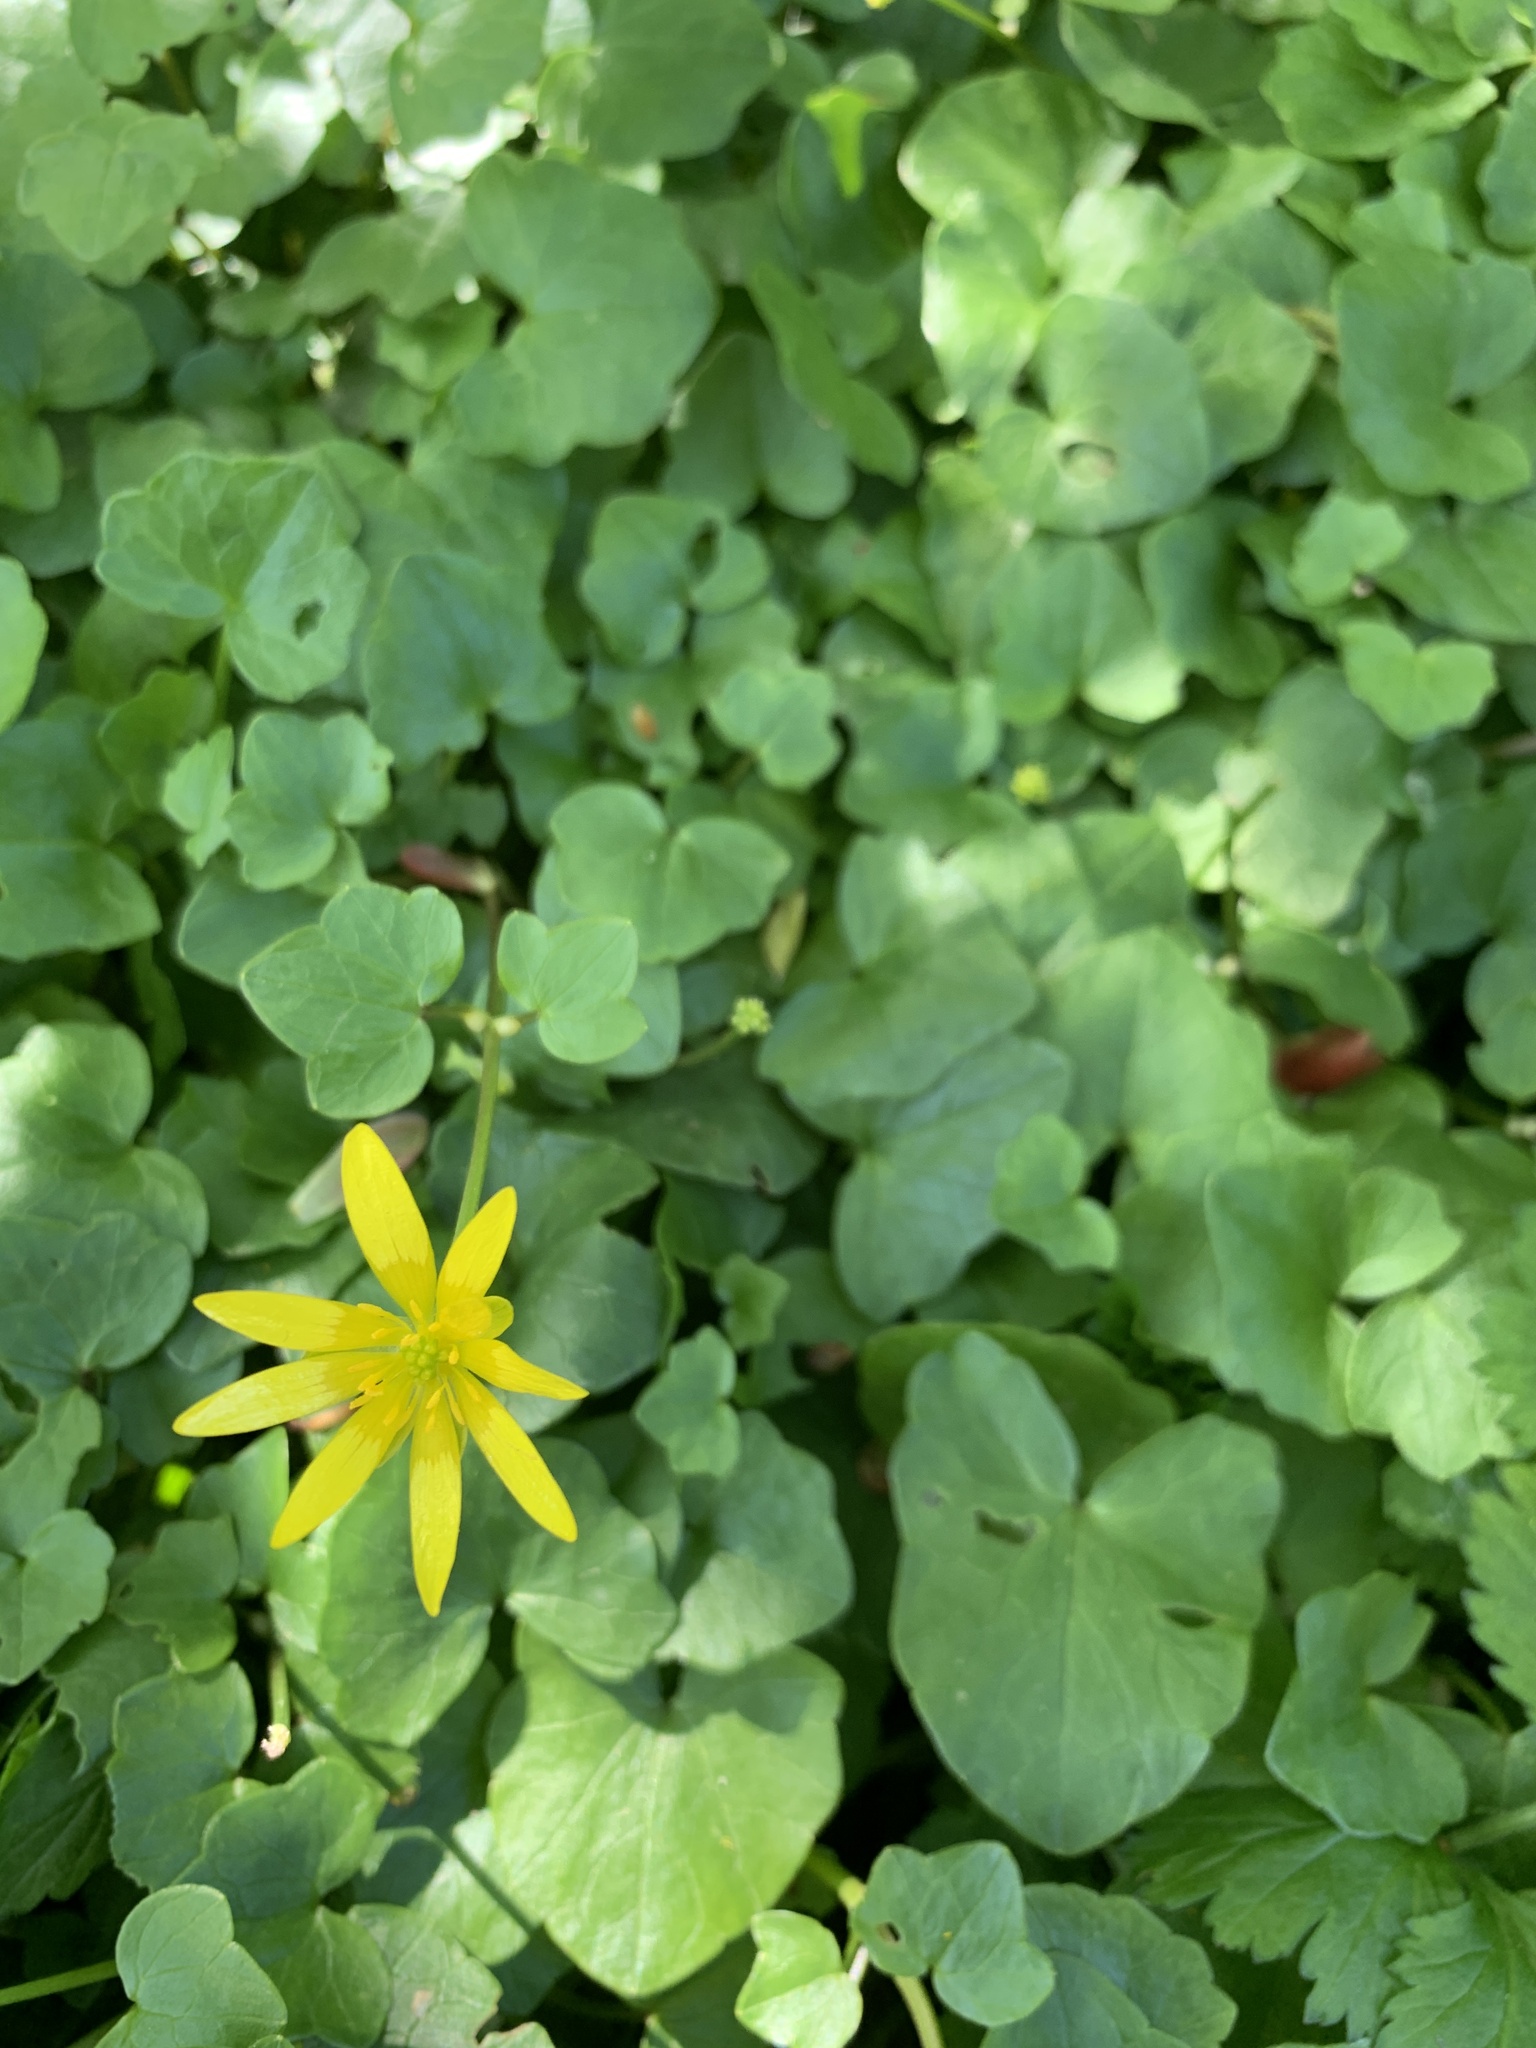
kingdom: Plantae
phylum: Tracheophyta
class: Magnoliopsida
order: Ranunculales
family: Ranunculaceae
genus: Ficaria
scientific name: Ficaria verna
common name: Lesser celandine
